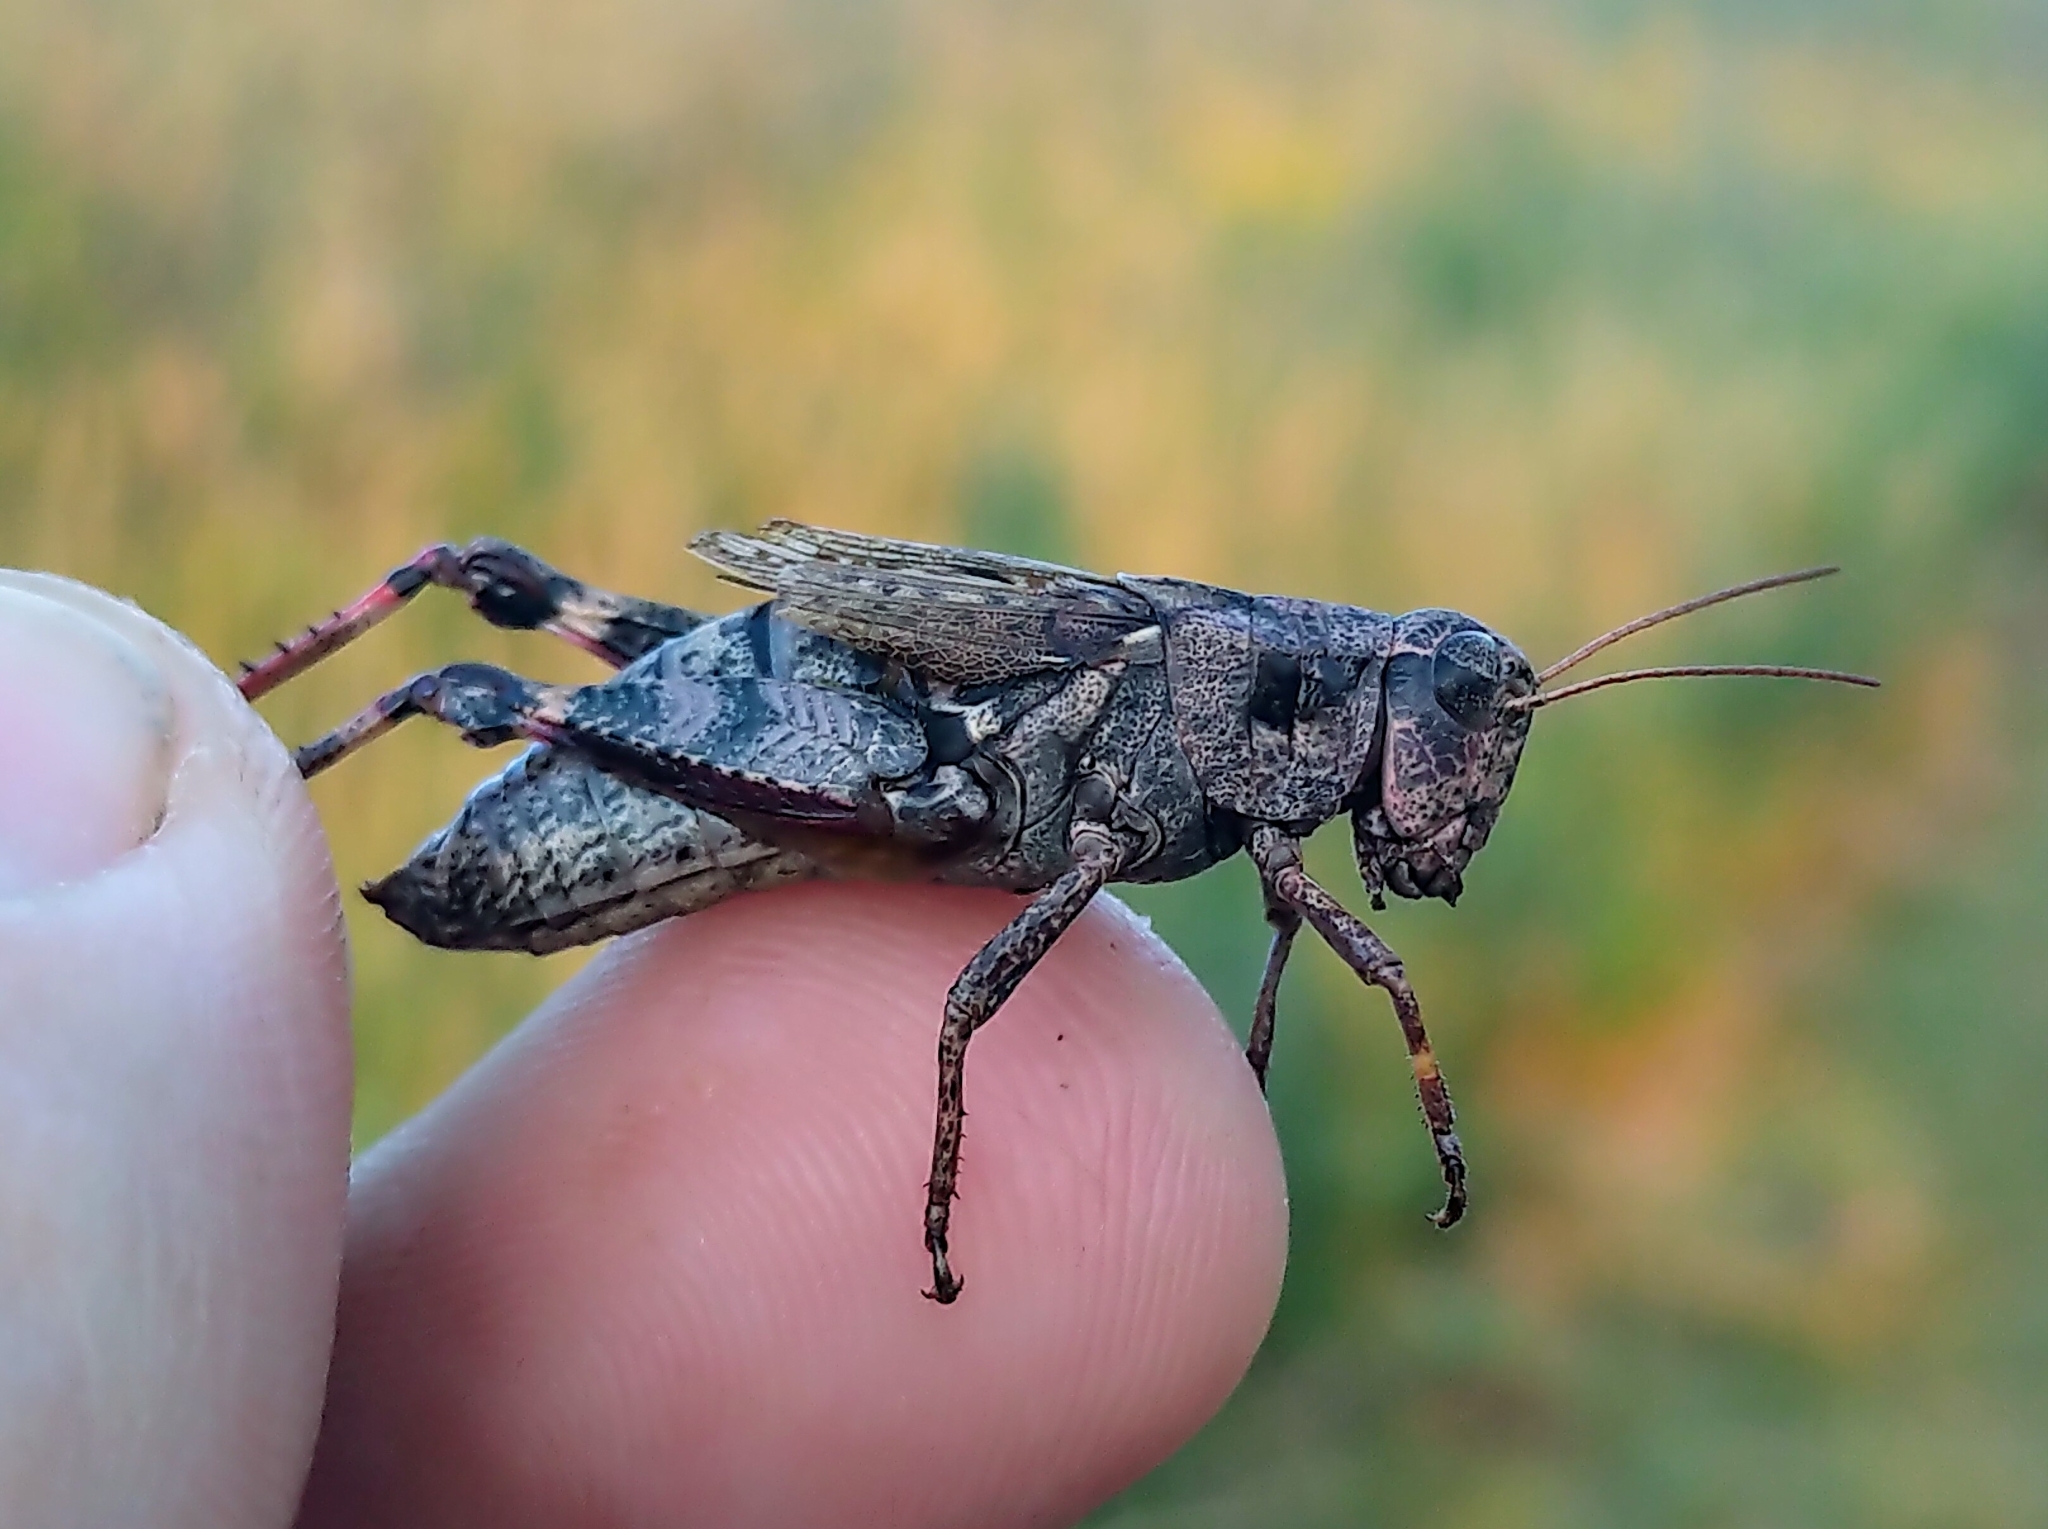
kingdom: Animalia
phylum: Arthropoda
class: Insecta
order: Orthoptera
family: Acrididae
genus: Melanoplus
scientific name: Melanoplus huroni
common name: Huron short-winged locust
